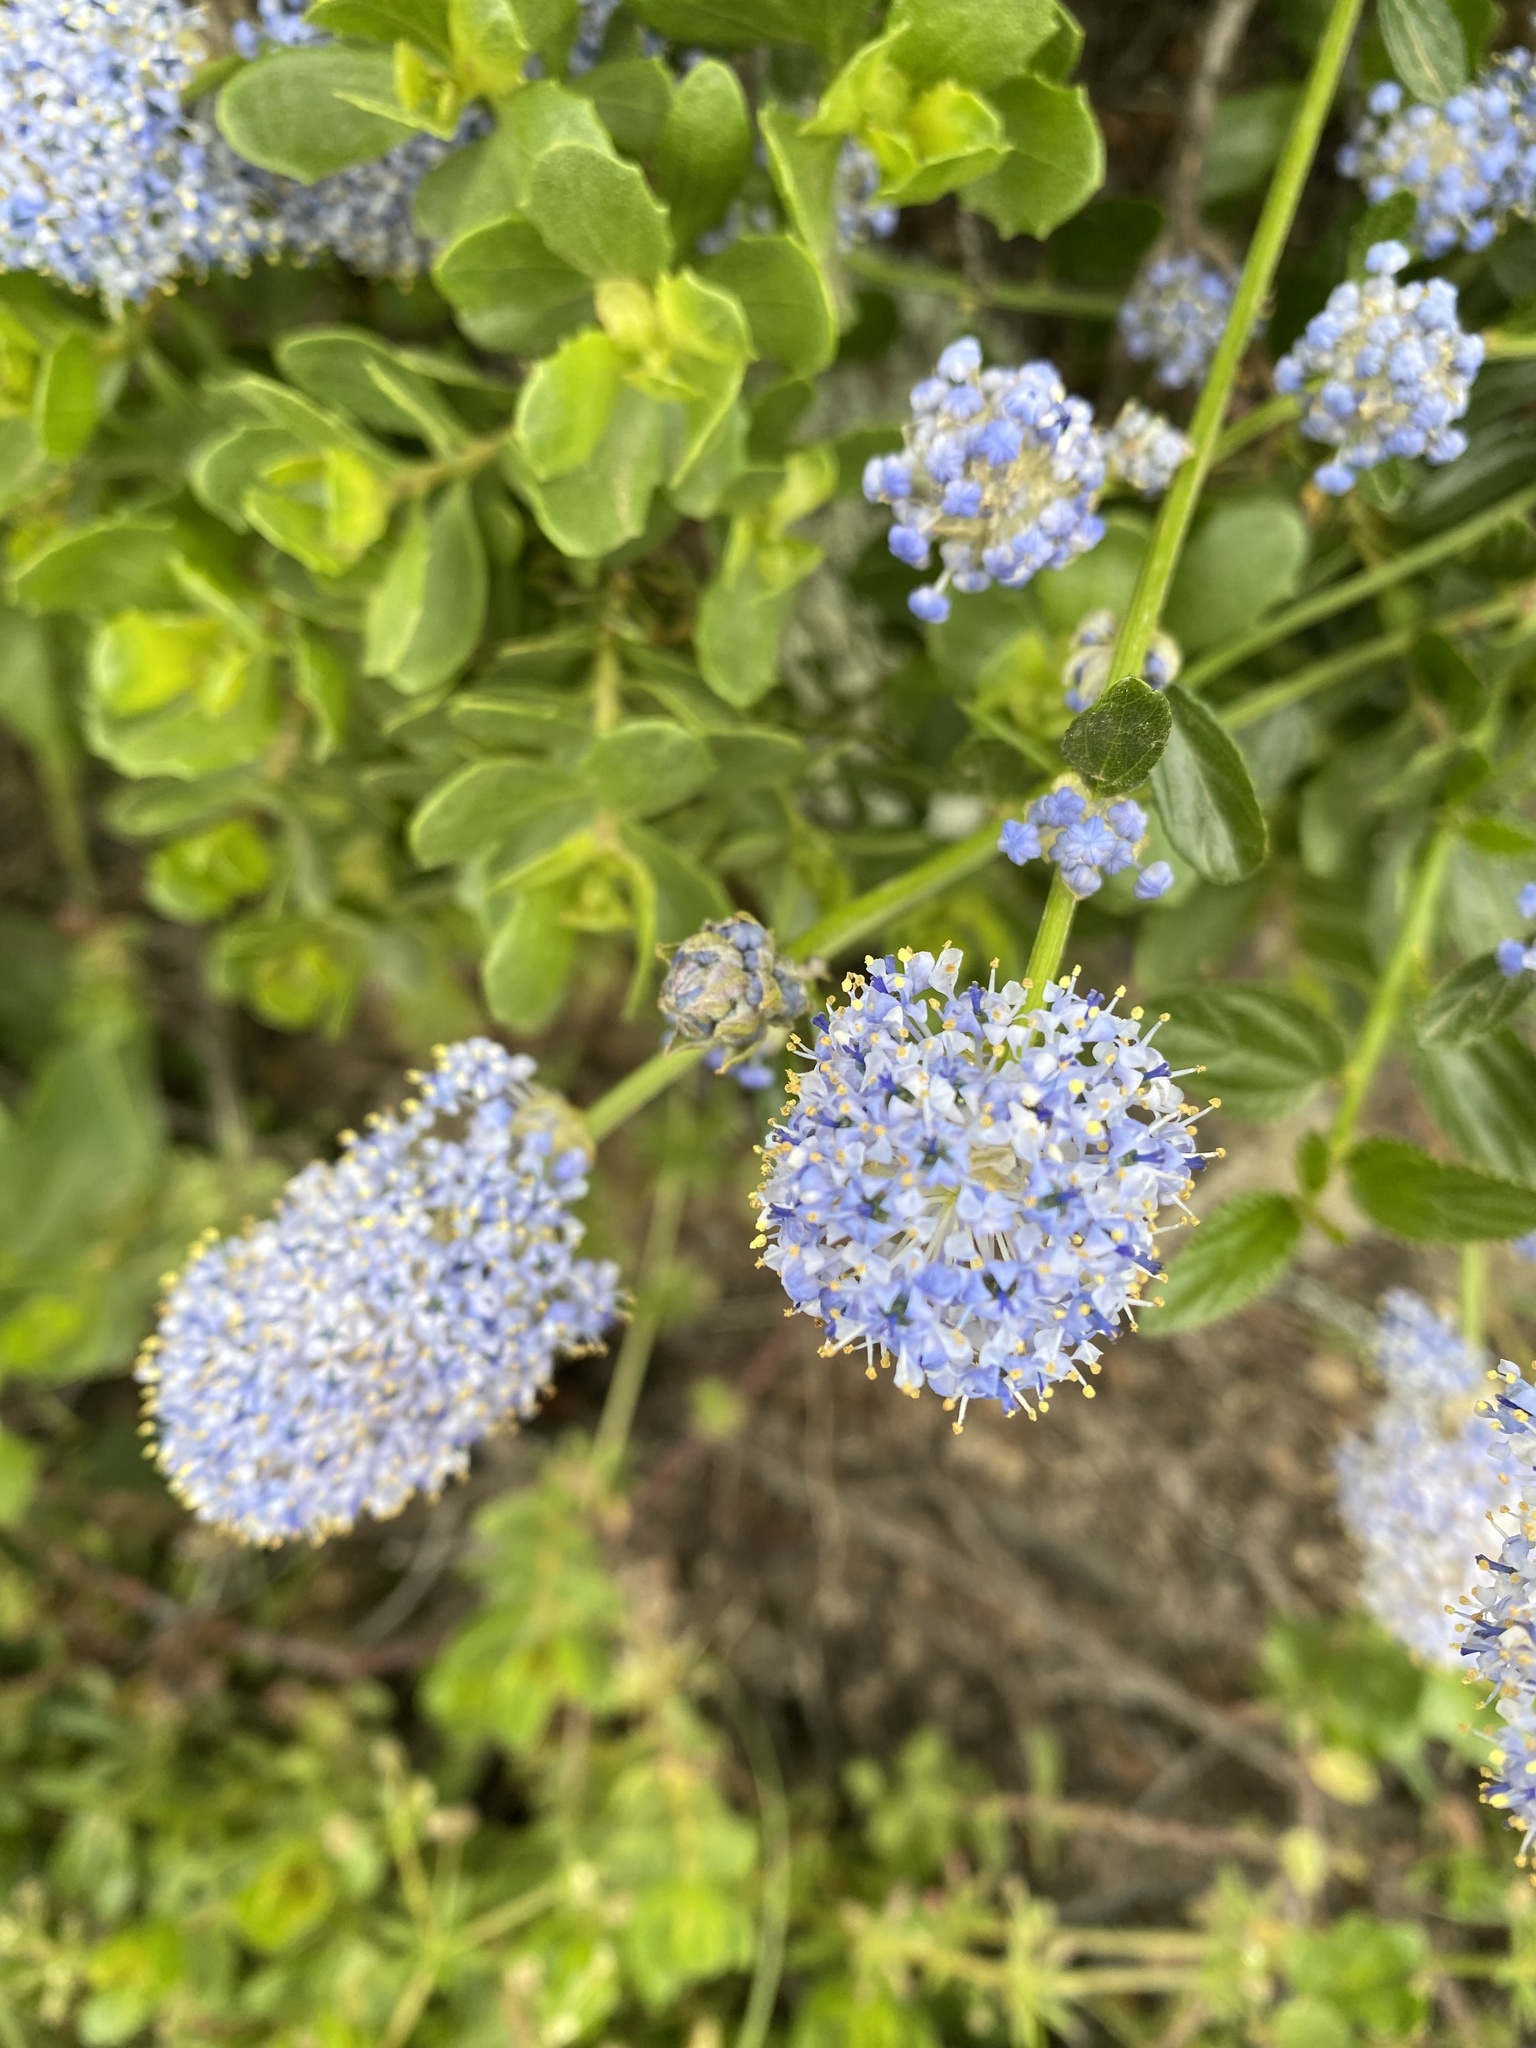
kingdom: Plantae
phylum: Tracheophyta
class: Magnoliopsida
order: Rosales
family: Rhamnaceae
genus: Ceanothus
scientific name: Ceanothus thyrsiflorus
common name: California-lilac
